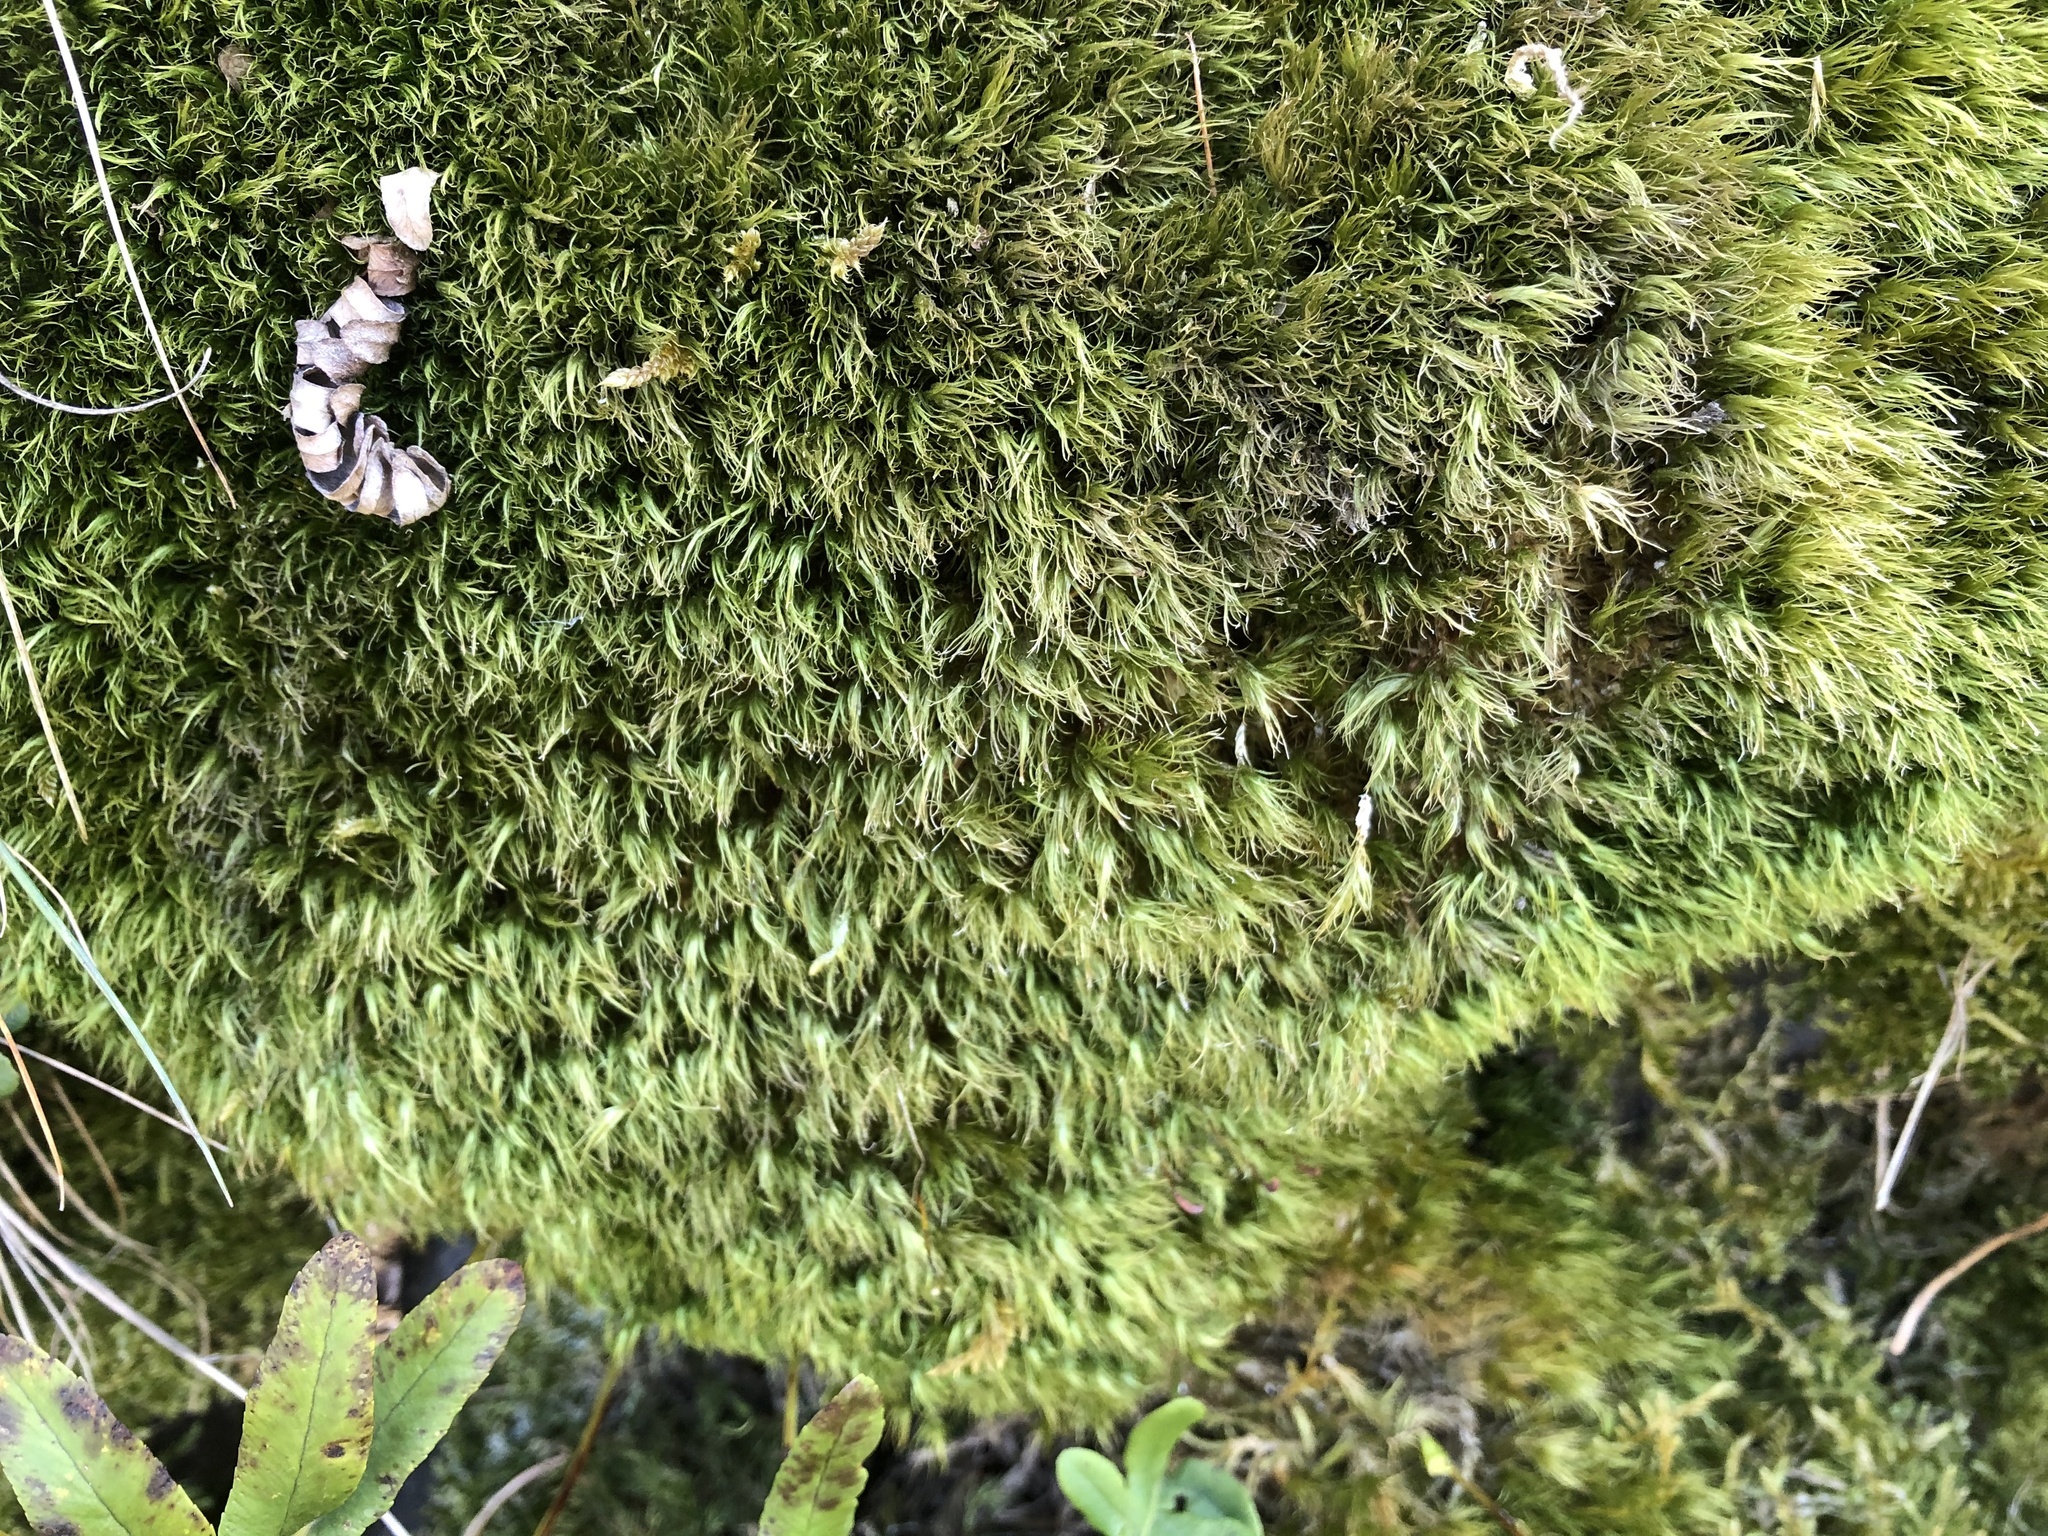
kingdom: Plantae
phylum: Bryophyta
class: Bryopsida
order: Dicranales
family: Dicranaceae
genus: Dicranum
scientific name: Dicranum scoparium
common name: Broom fork-moss
